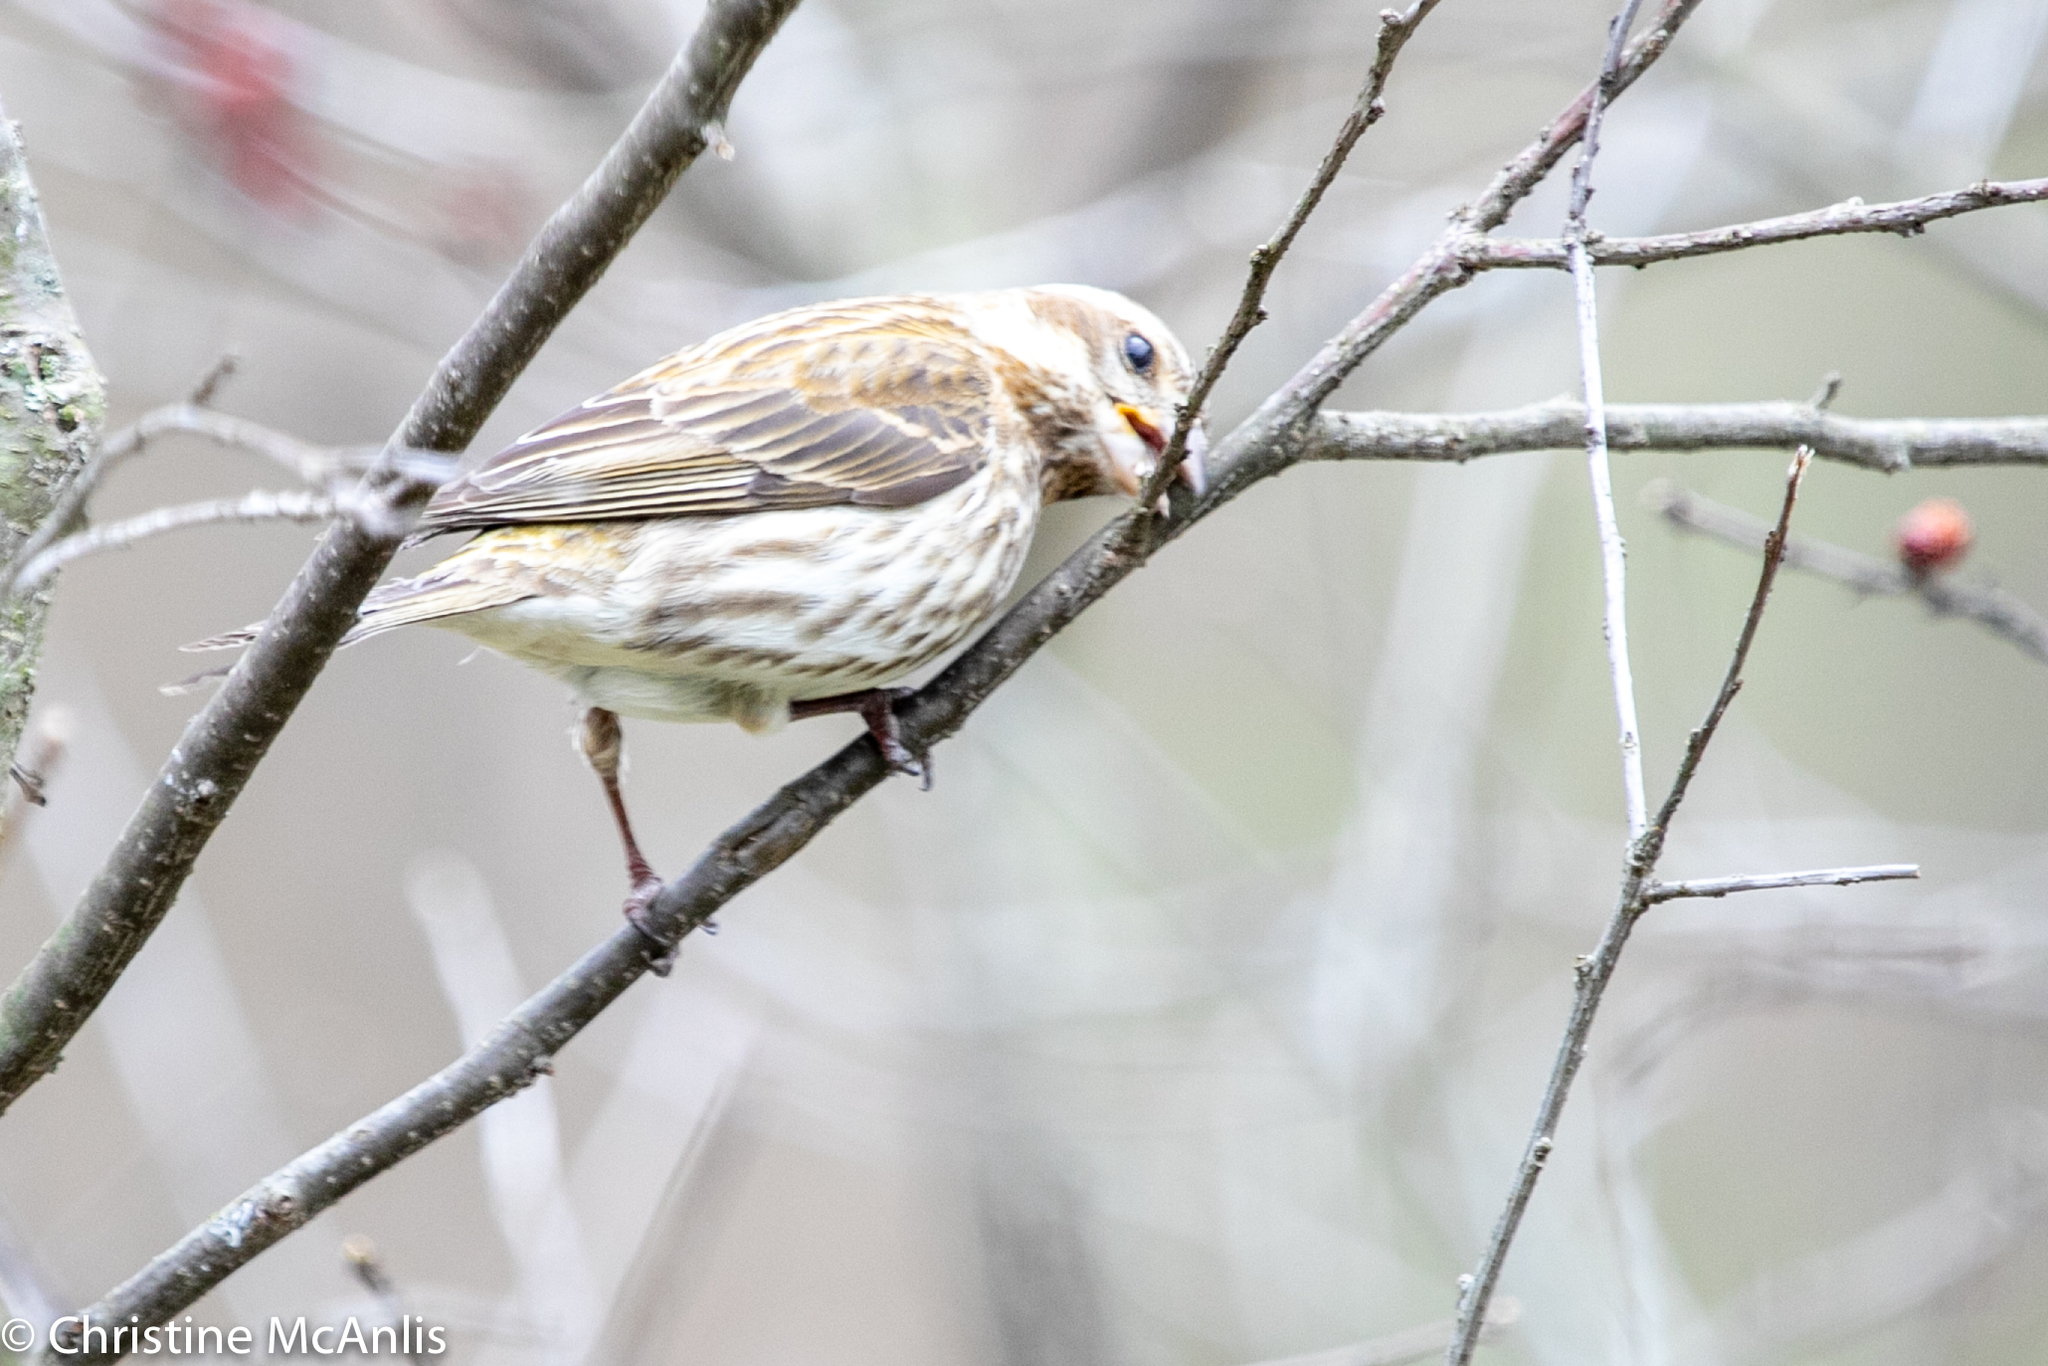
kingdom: Animalia
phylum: Chordata
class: Aves
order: Passeriformes
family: Fringillidae
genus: Haemorhous
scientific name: Haemorhous purpureus
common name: Purple finch
